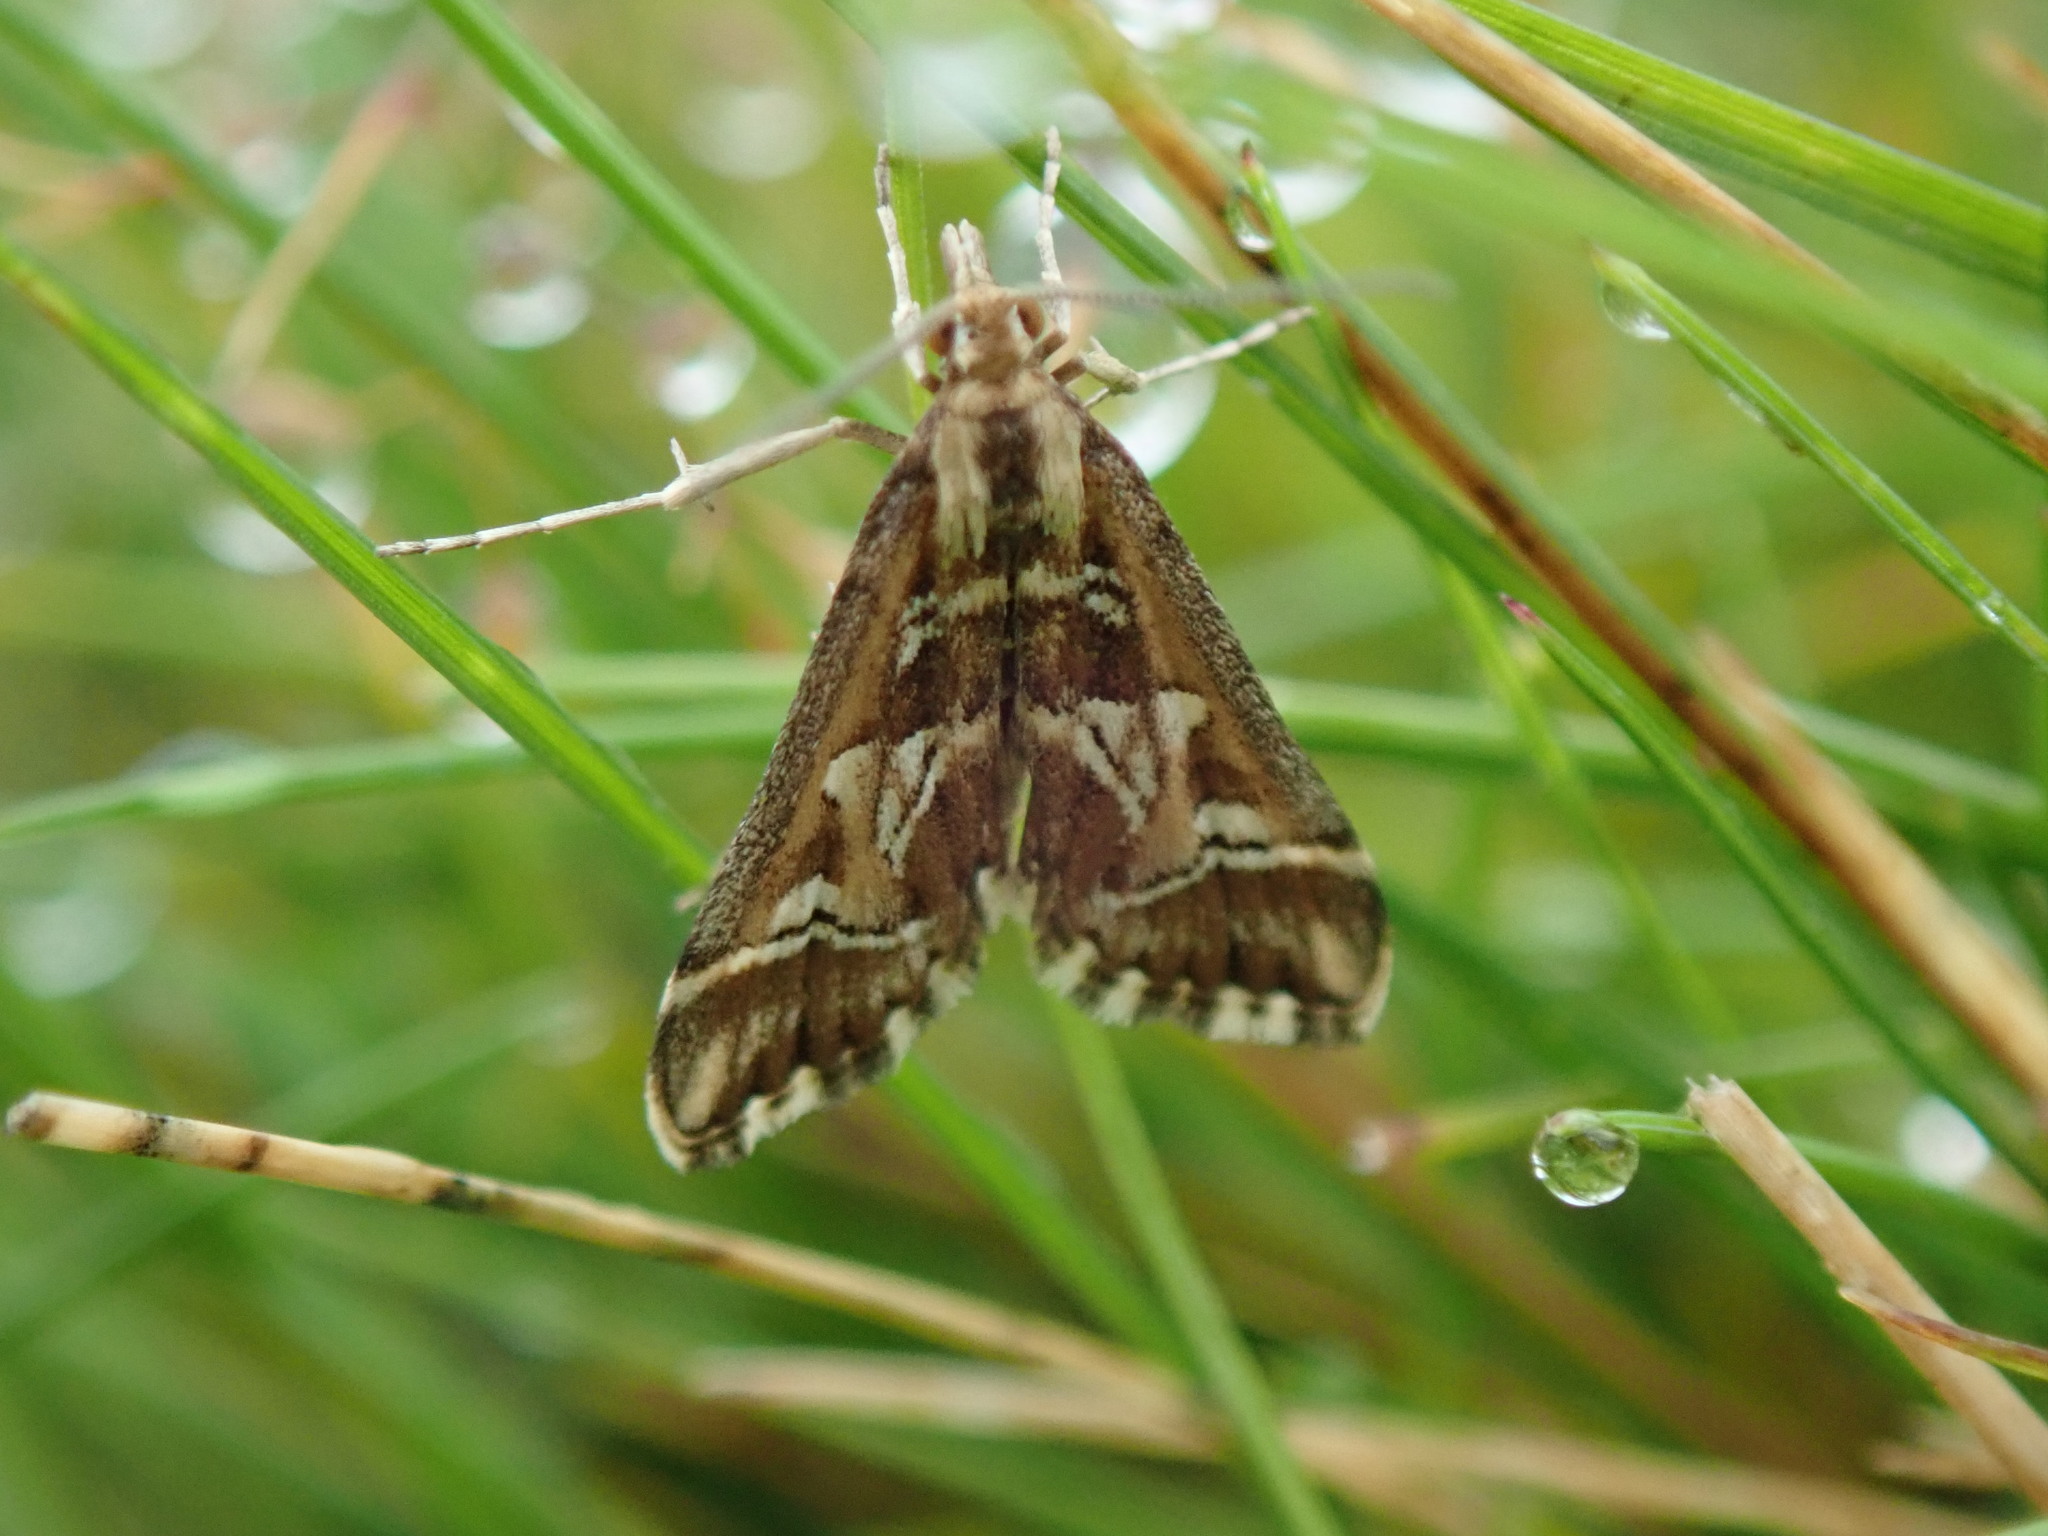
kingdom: Animalia
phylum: Arthropoda
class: Insecta
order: Lepidoptera
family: Crambidae
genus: Diasemia
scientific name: Diasemia reticularis
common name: Lettered china-mark
